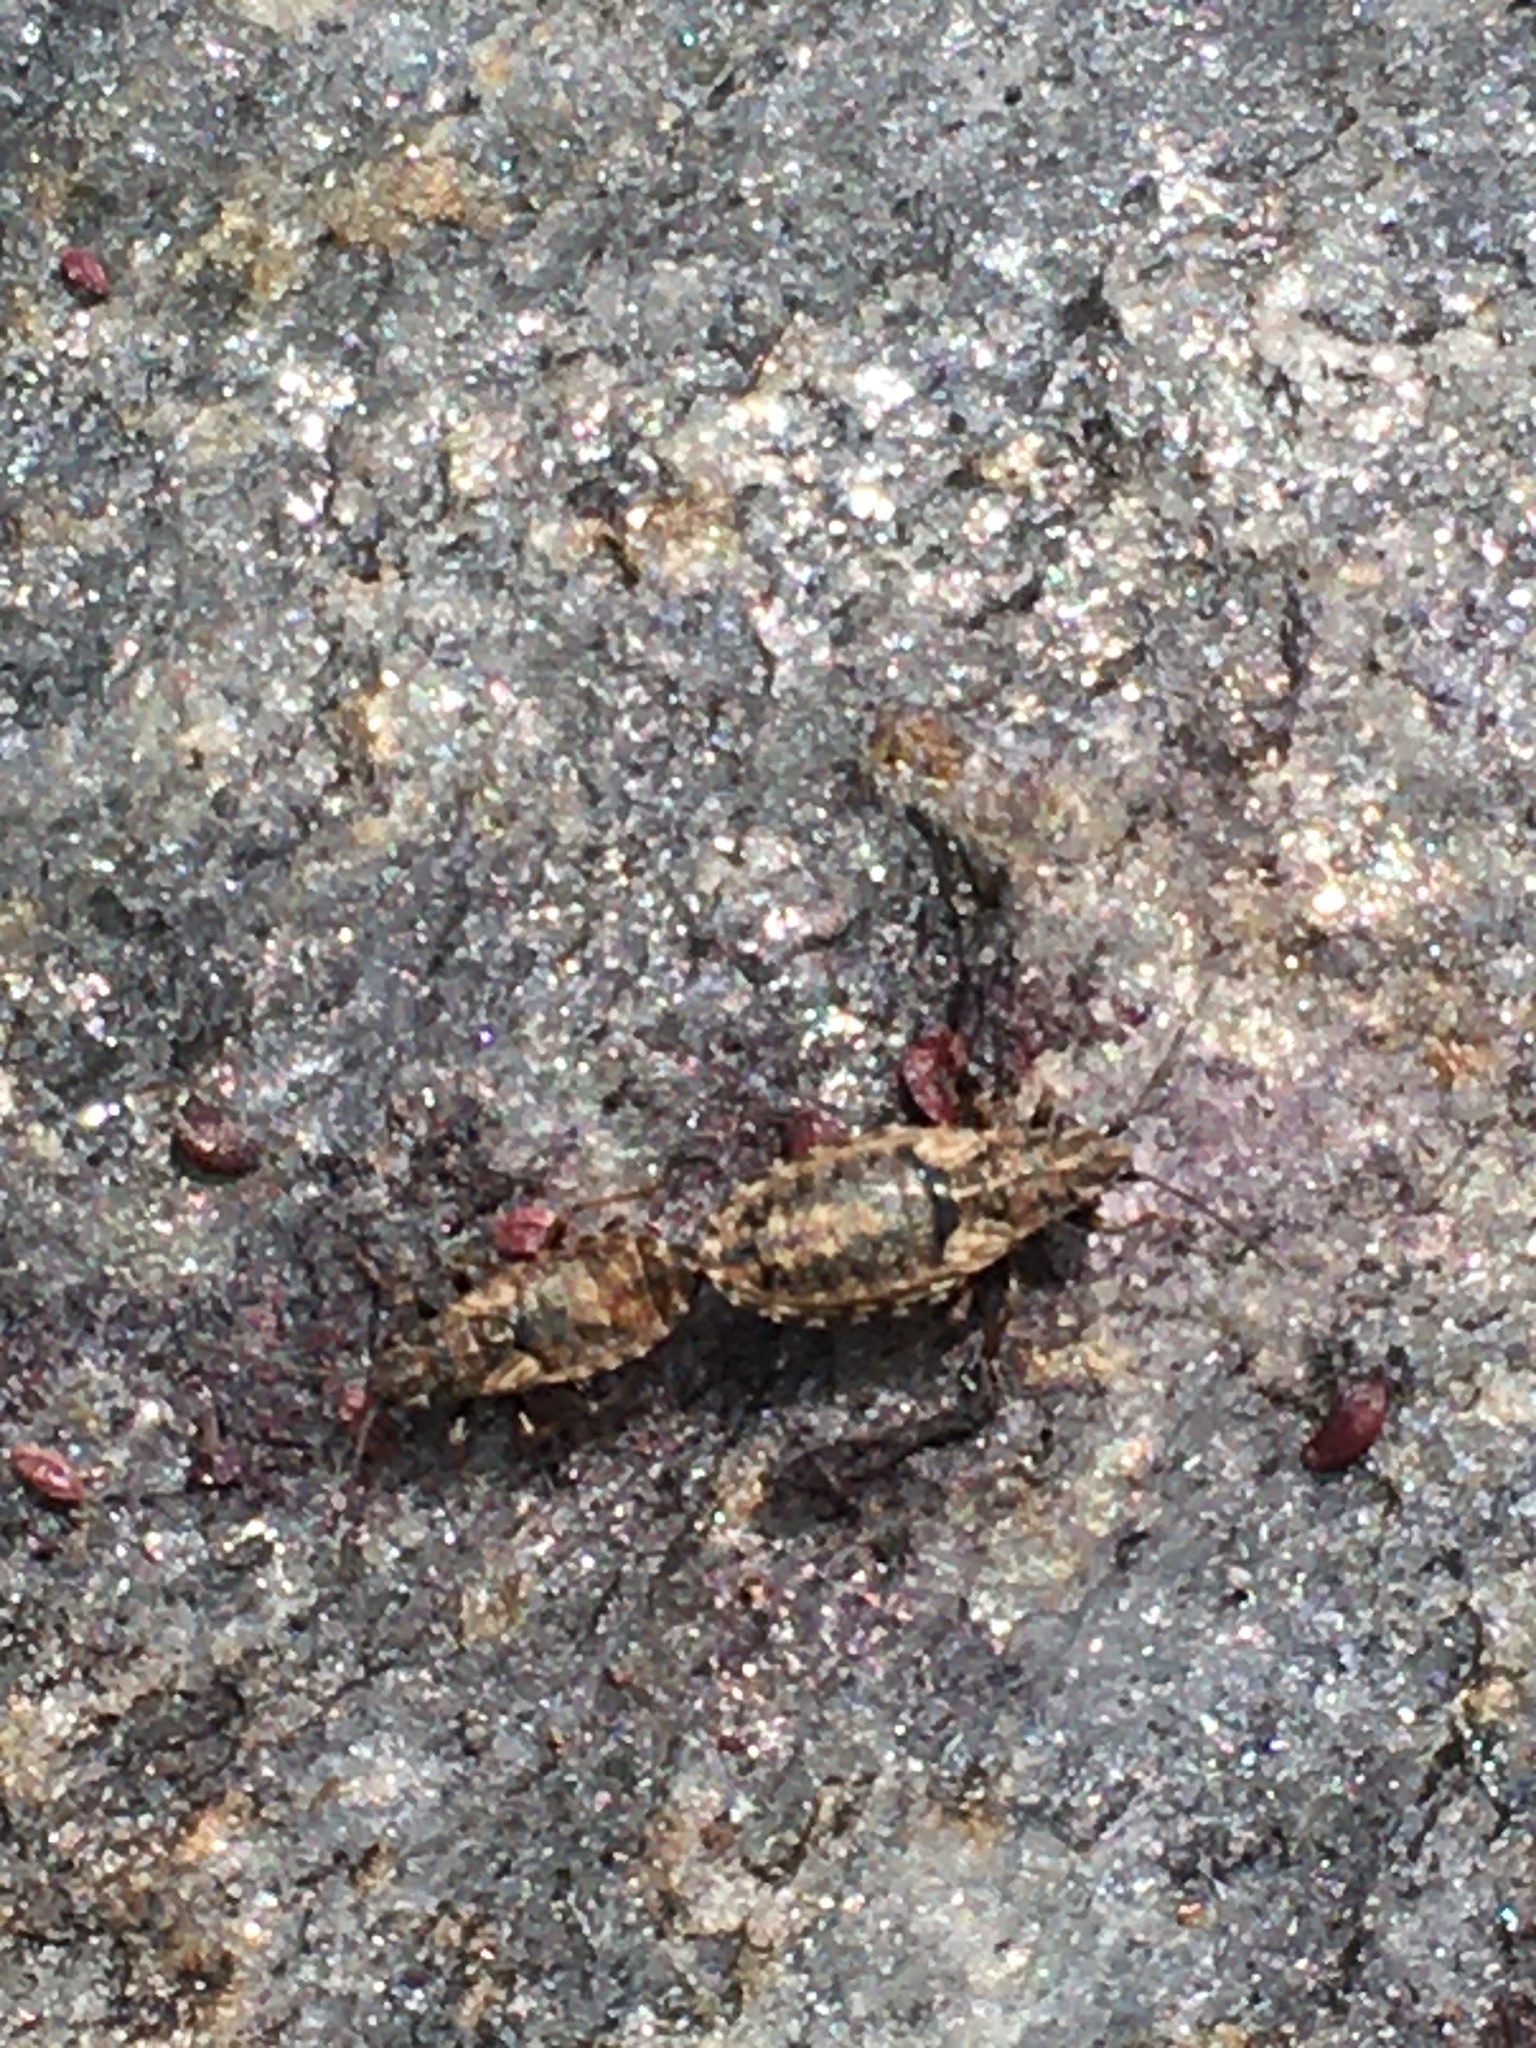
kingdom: Animalia
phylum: Arthropoda
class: Insecta
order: Hemiptera
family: Lygaeidae
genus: Nithecus
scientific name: Nithecus jacobaeae
